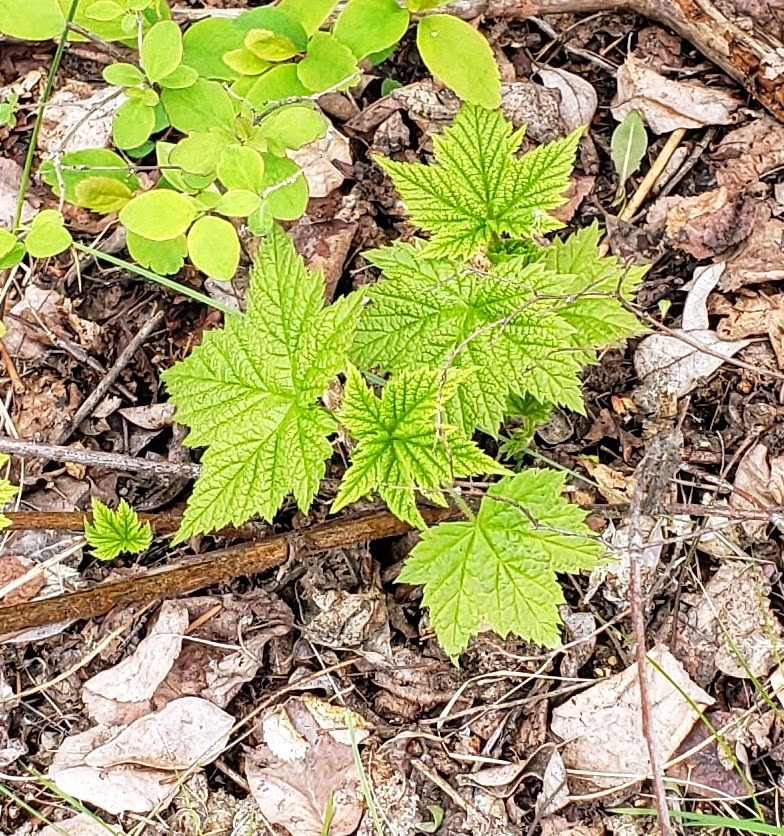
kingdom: Plantae
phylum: Tracheophyta
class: Magnoliopsida
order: Rosales
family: Rosaceae
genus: Rubus
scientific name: Rubus parviflorus
